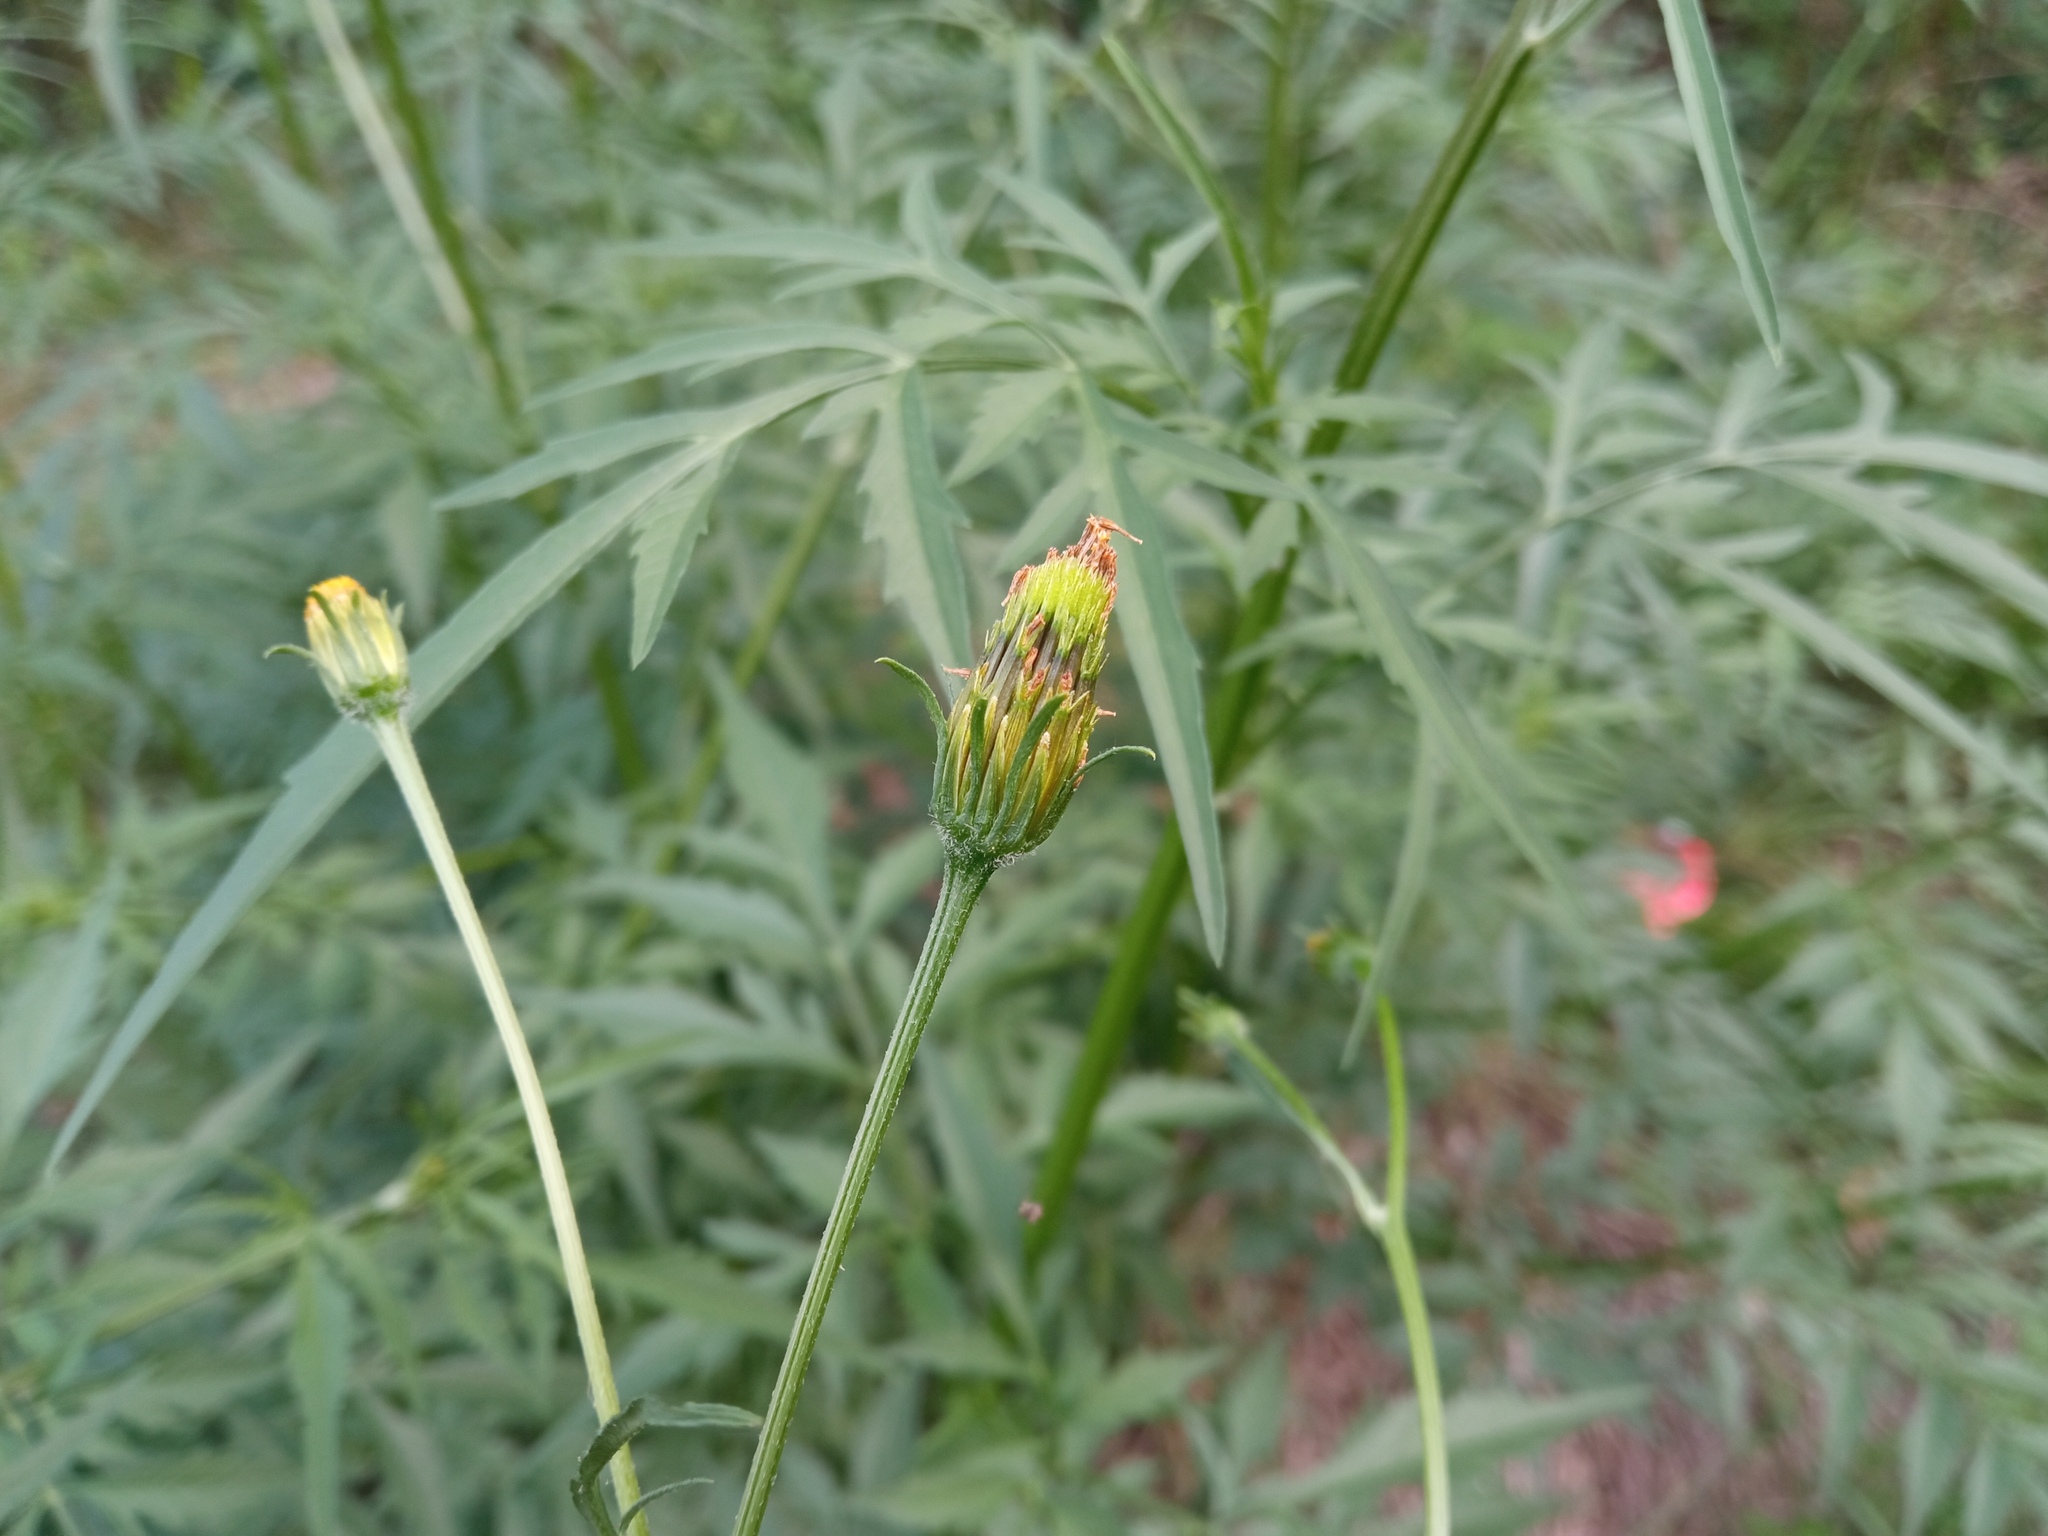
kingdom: Plantae
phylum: Tracheophyta
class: Magnoliopsida
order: Asterales
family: Asteraceae
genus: Bidens
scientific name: Bidens subalternans
